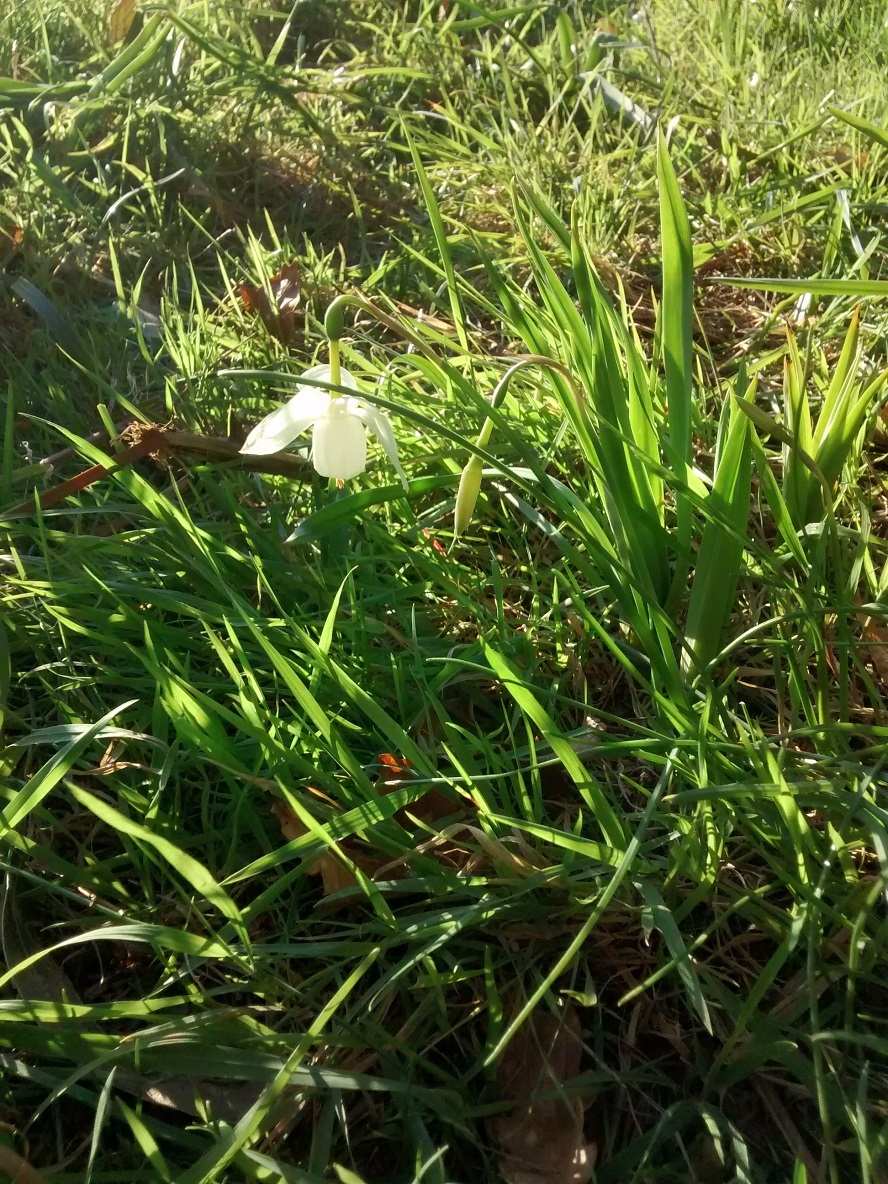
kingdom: Plantae
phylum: Tracheophyta
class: Liliopsida
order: Asparagales
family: Amaryllidaceae
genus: Narcissus
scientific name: Narcissus triandrus
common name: Angel's-tears
